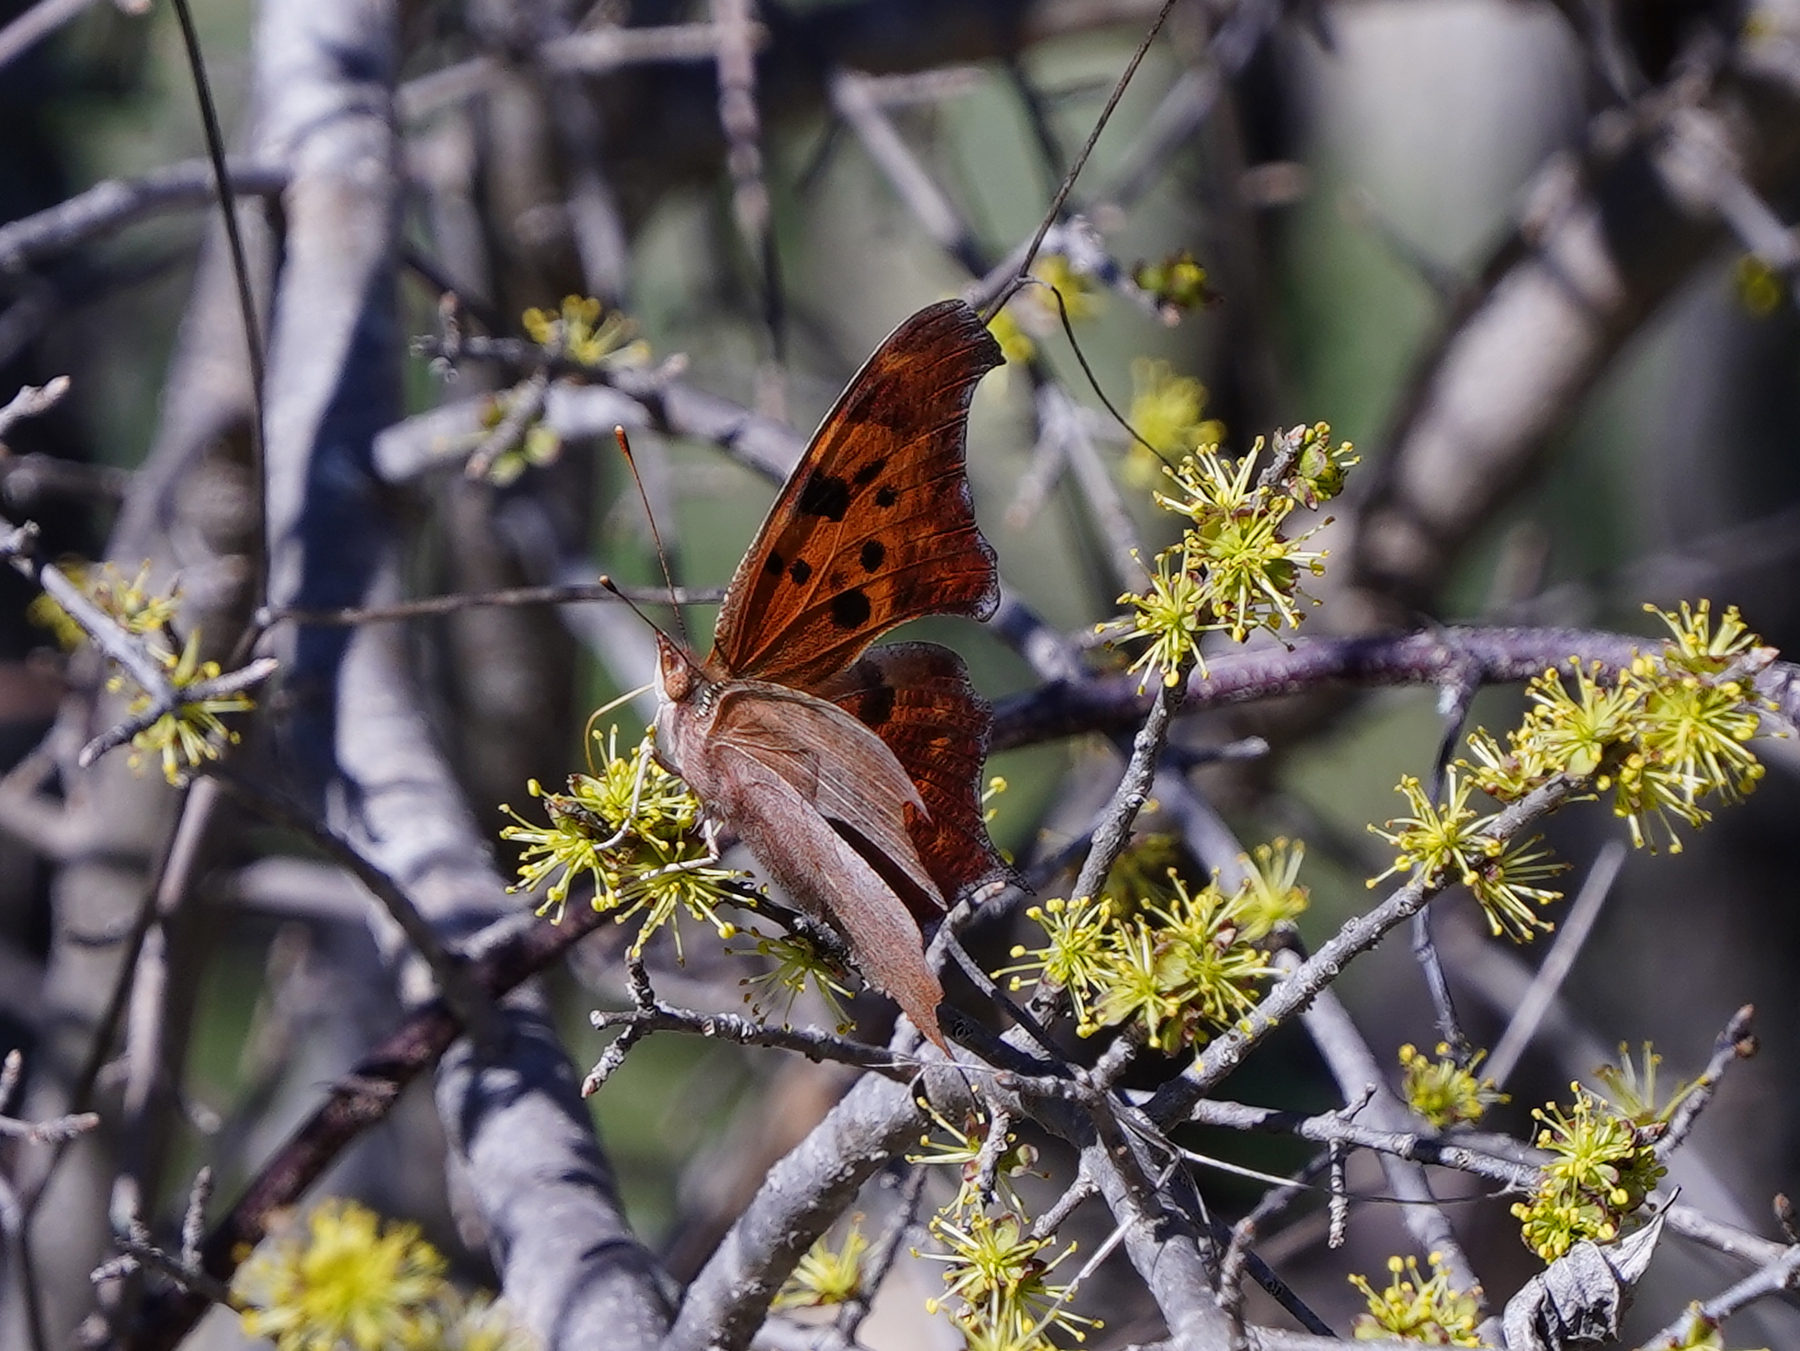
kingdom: Animalia
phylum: Arthropoda
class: Insecta
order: Lepidoptera
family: Nymphalidae
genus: Polygonia
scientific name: Polygonia interrogationis
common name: Question mark
